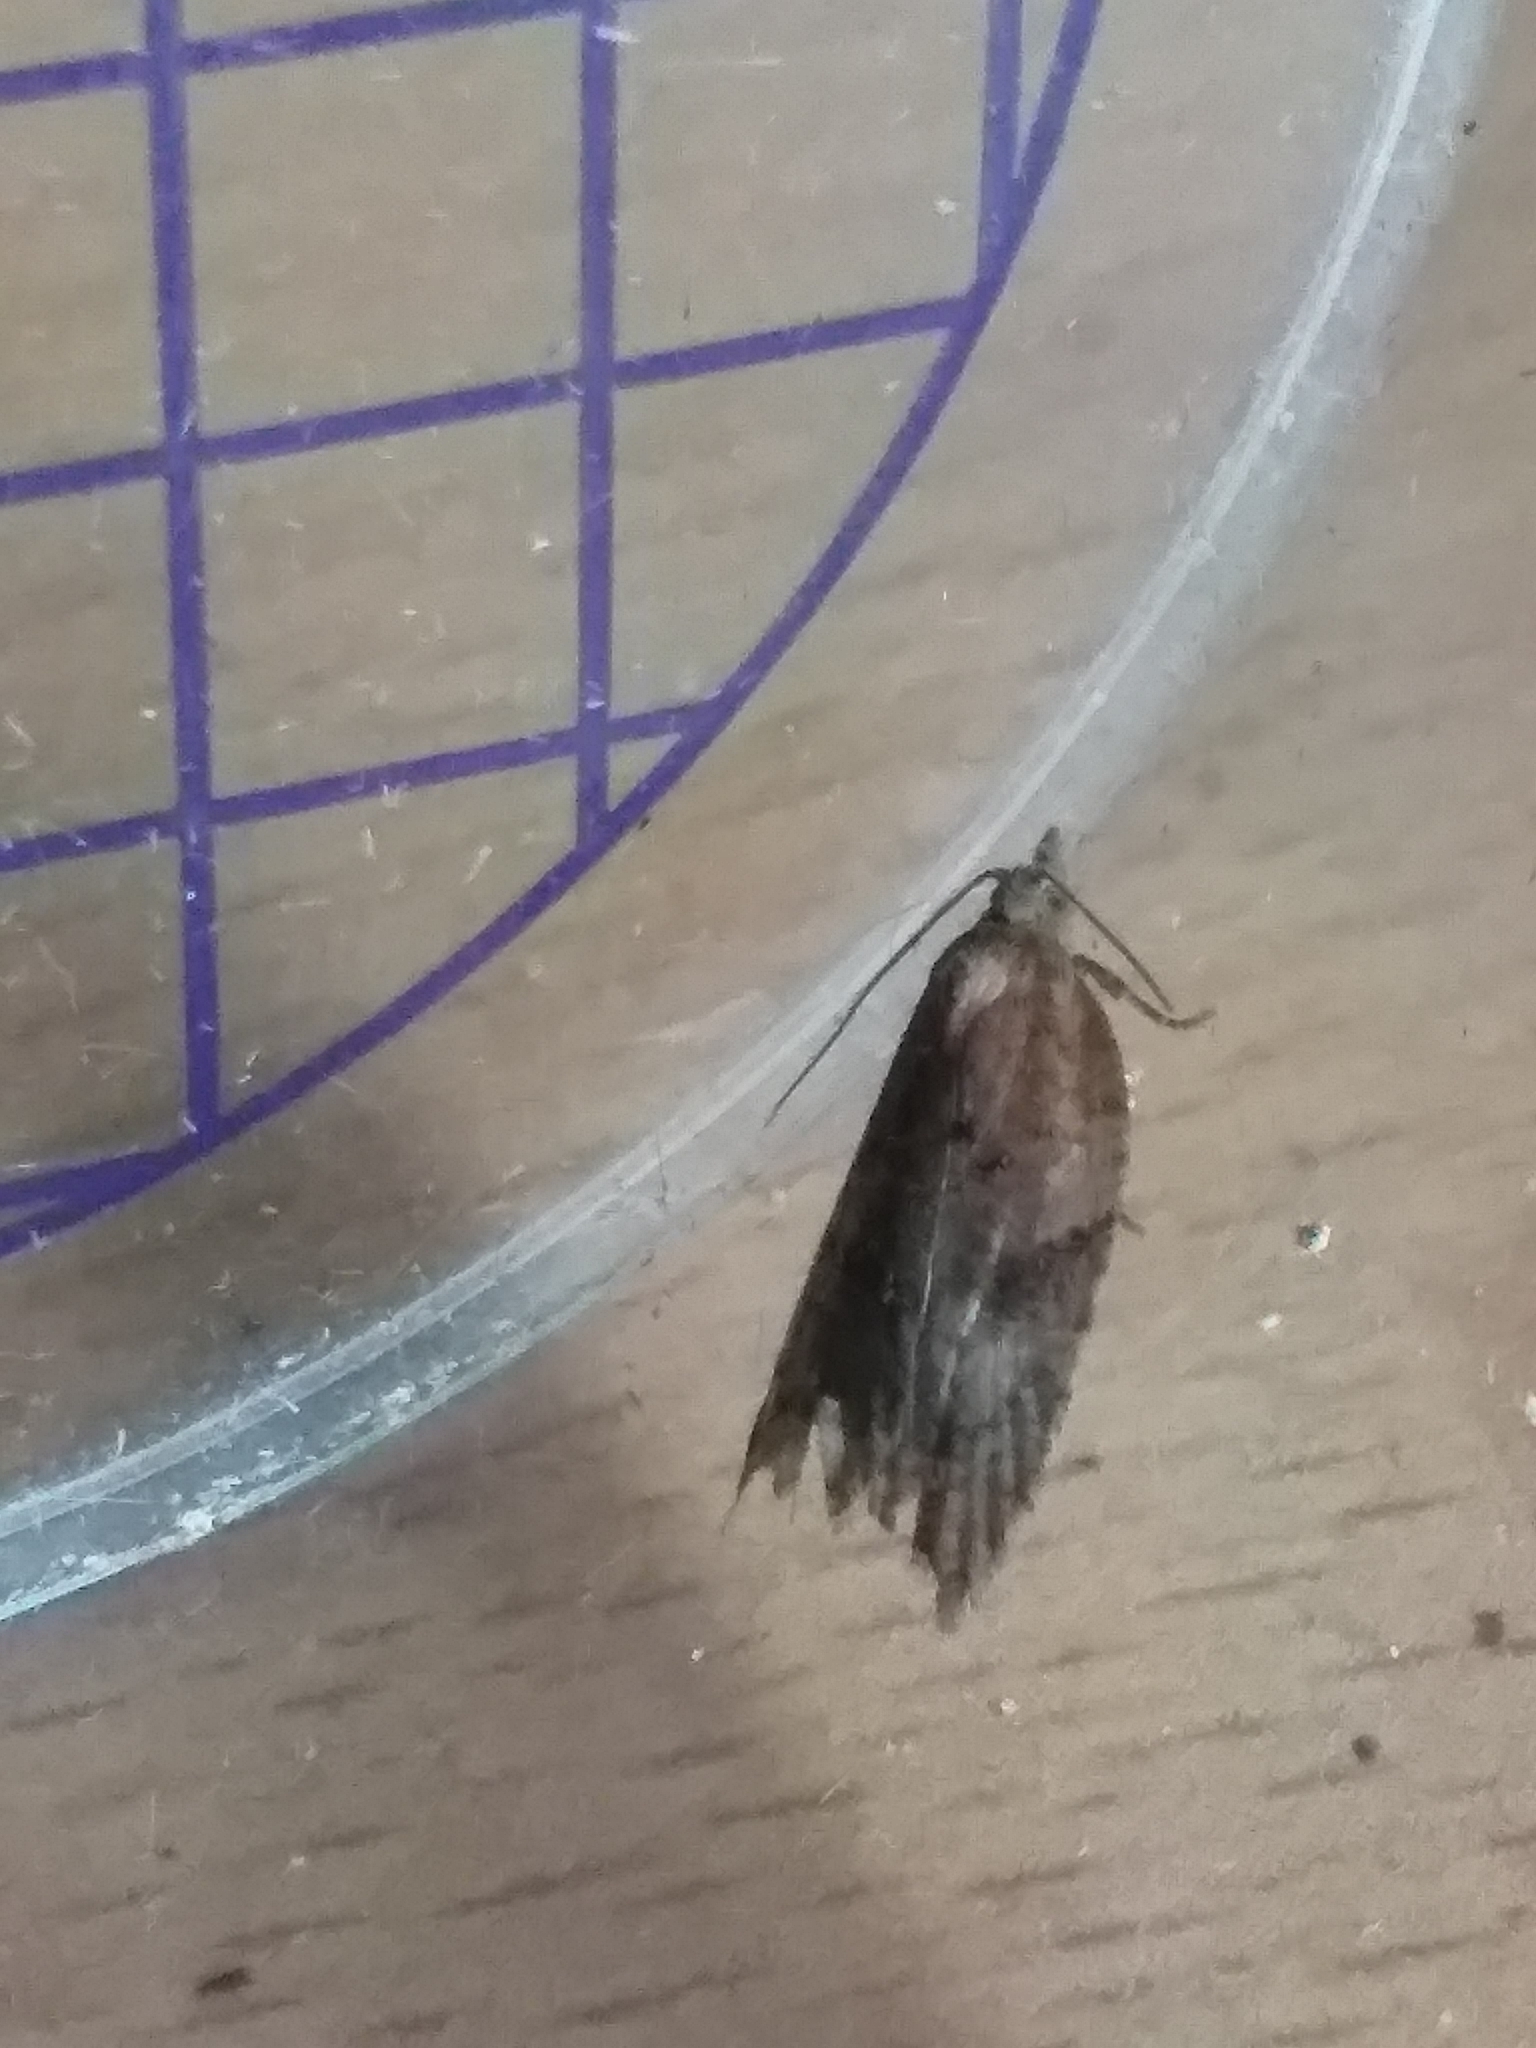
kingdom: Animalia
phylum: Arthropoda
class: Insecta
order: Lepidoptera
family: Tortricidae
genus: Acleris
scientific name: Acleris sparsana
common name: Ashy button
